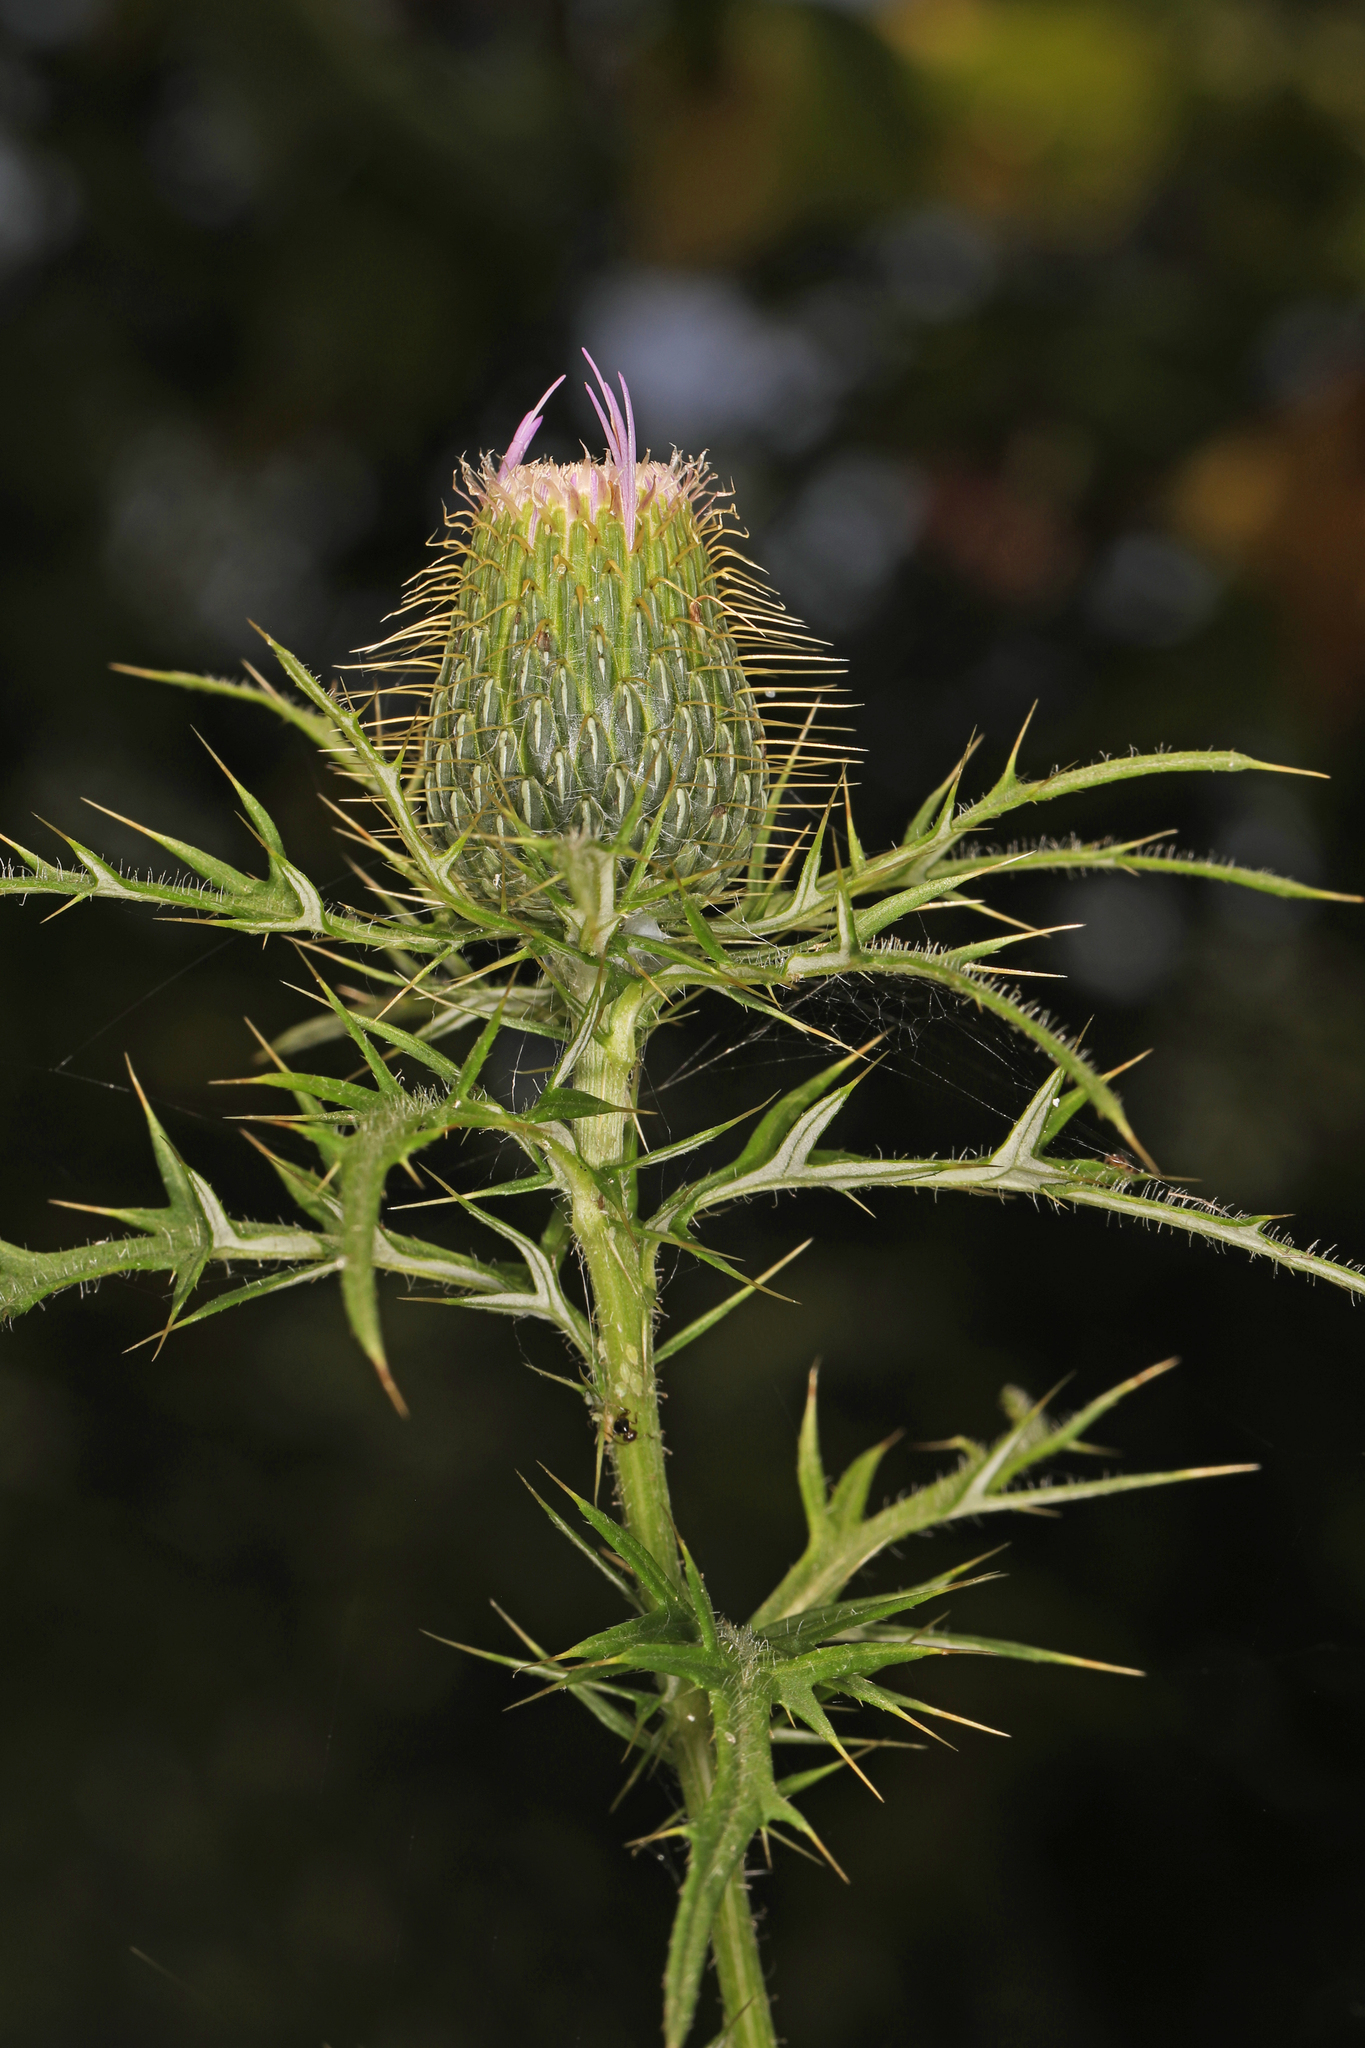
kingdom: Plantae
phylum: Tracheophyta
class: Magnoliopsida
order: Asterales
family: Asteraceae
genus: Cirsium
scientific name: Cirsium discolor
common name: Field thistle
